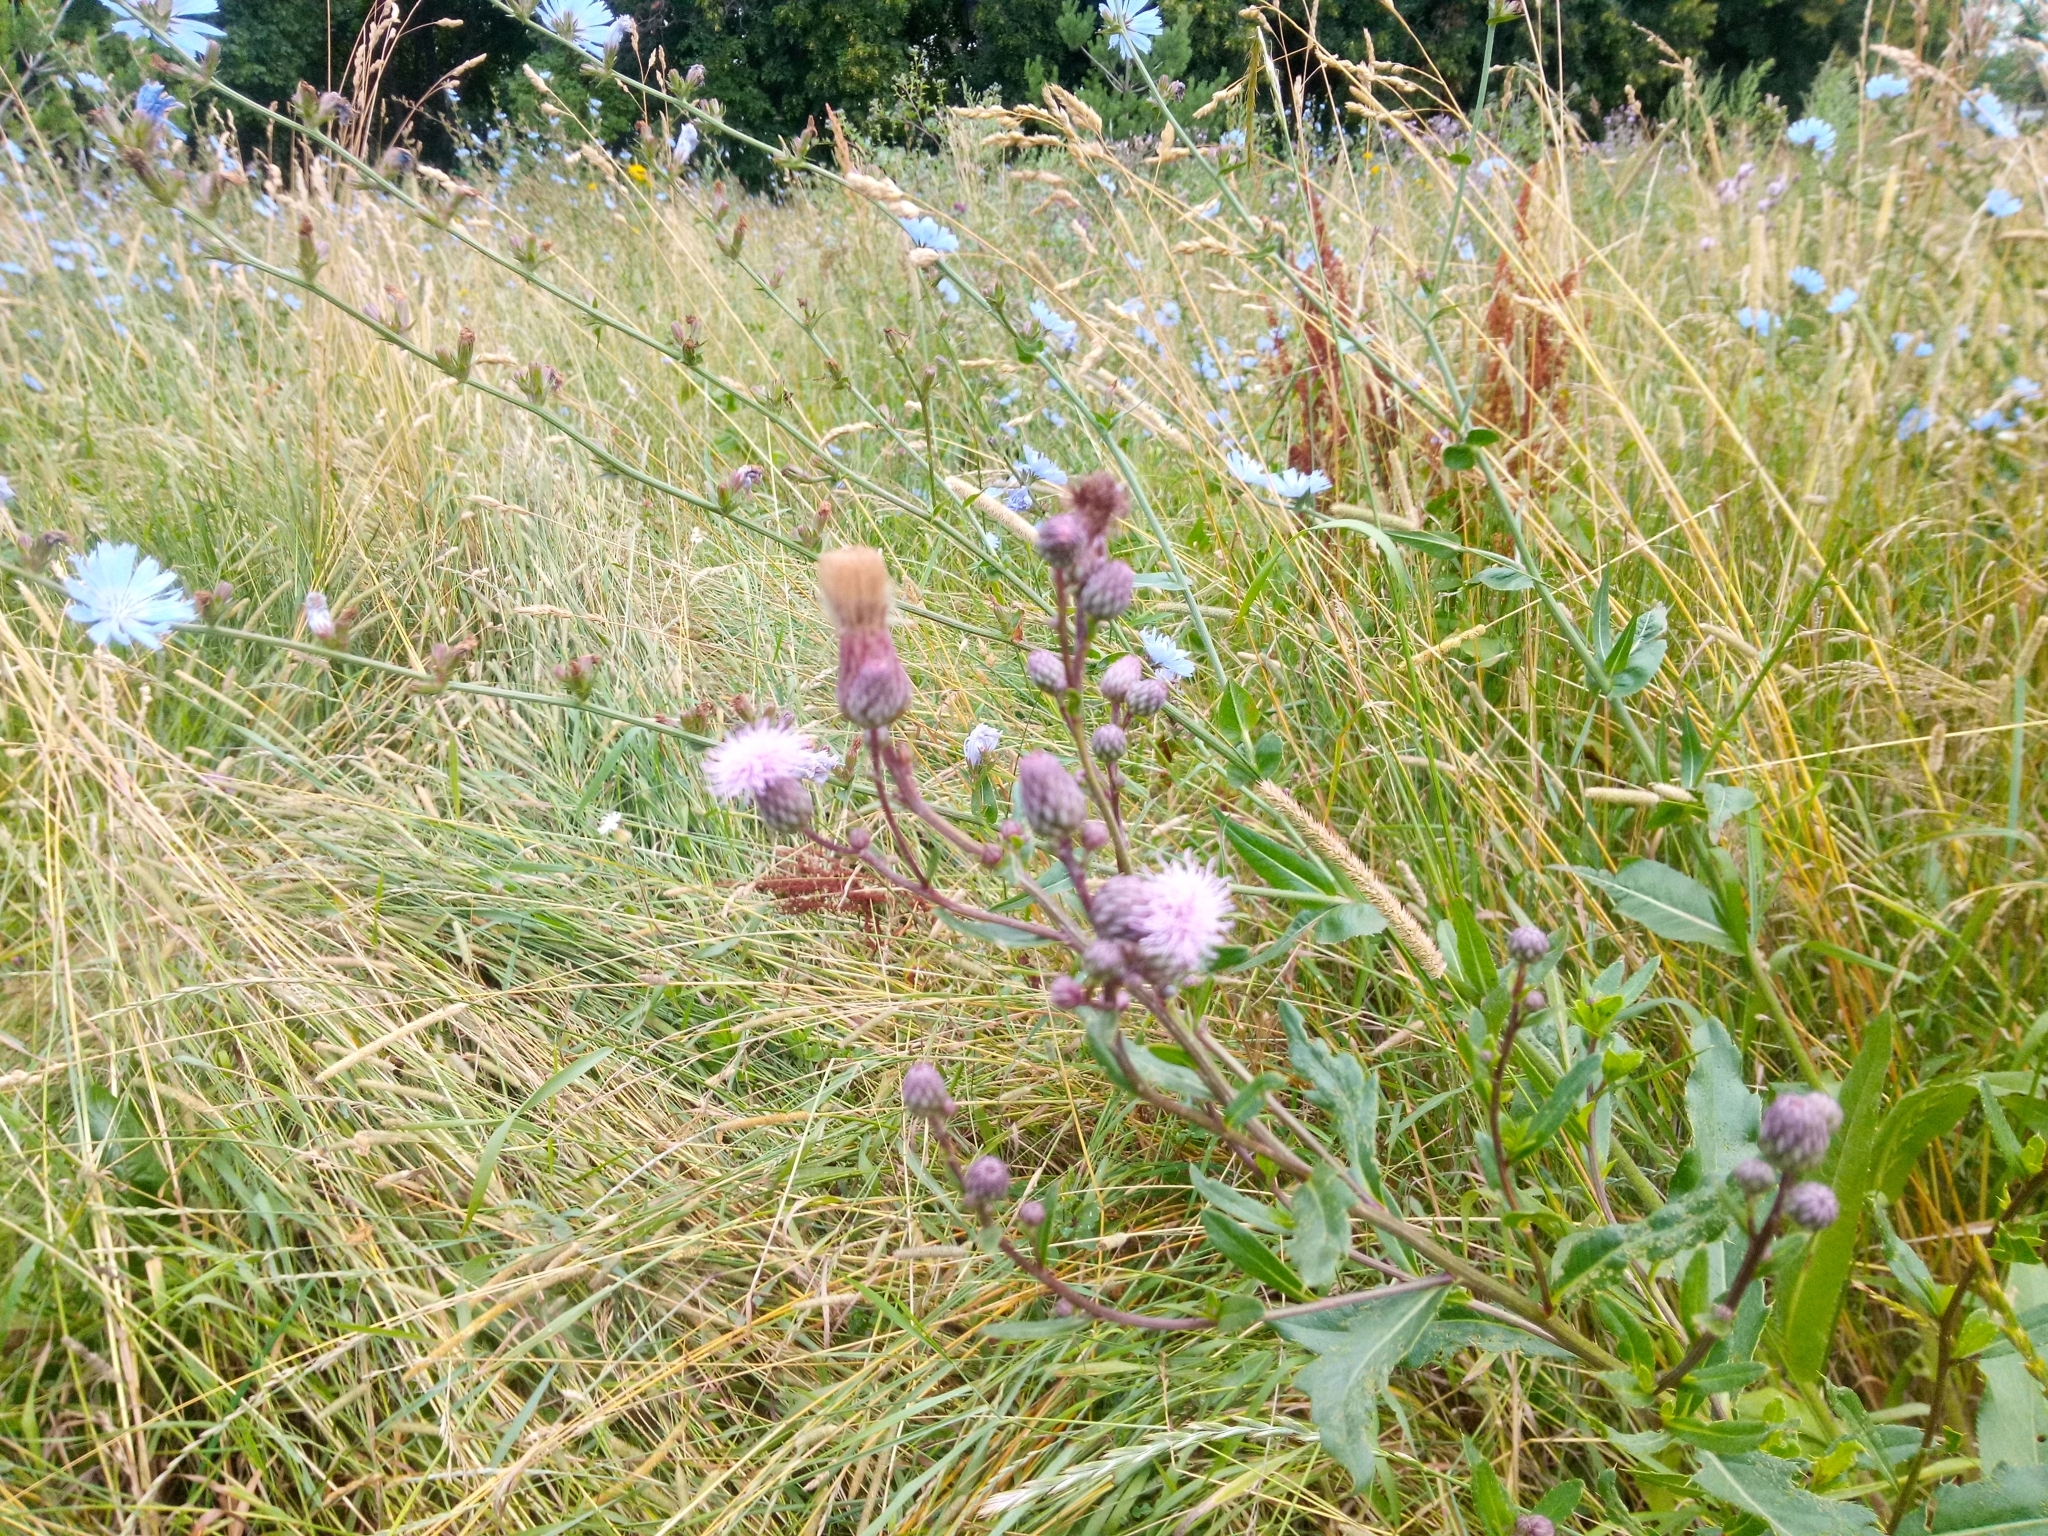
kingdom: Plantae
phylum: Tracheophyta
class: Magnoliopsida
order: Asterales
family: Asteraceae
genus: Cirsium
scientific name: Cirsium arvense
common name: Creeping thistle
